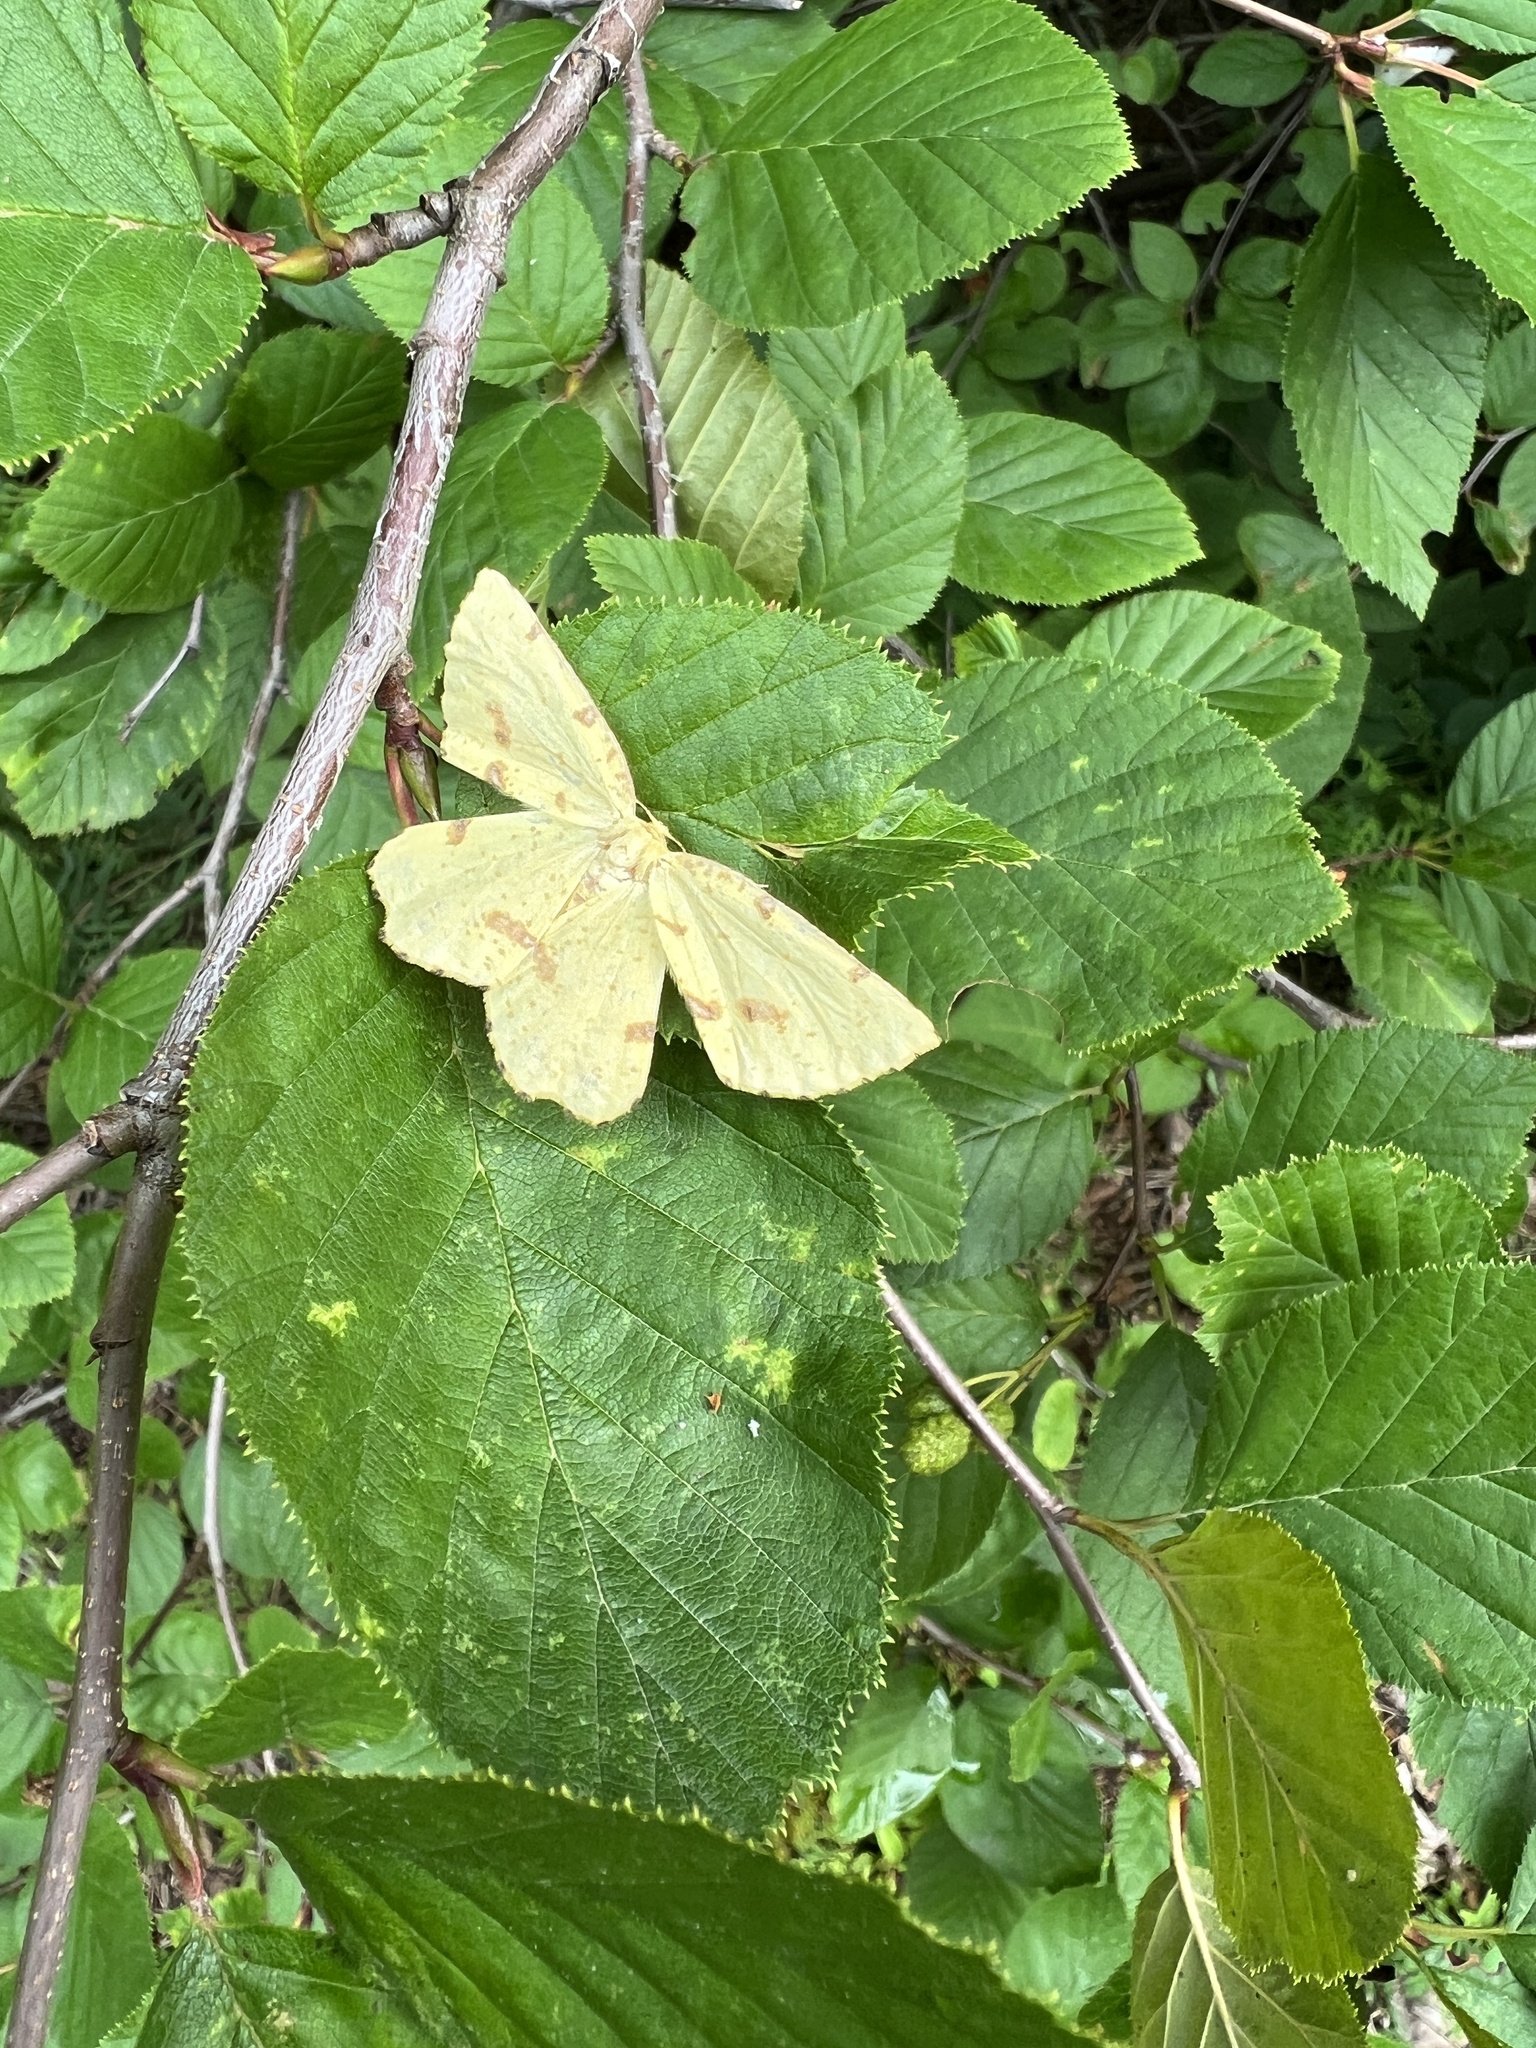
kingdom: Animalia
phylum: Arthropoda
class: Insecta
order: Lepidoptera
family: Geometridae
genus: Xanthotype
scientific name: Xanthotype
